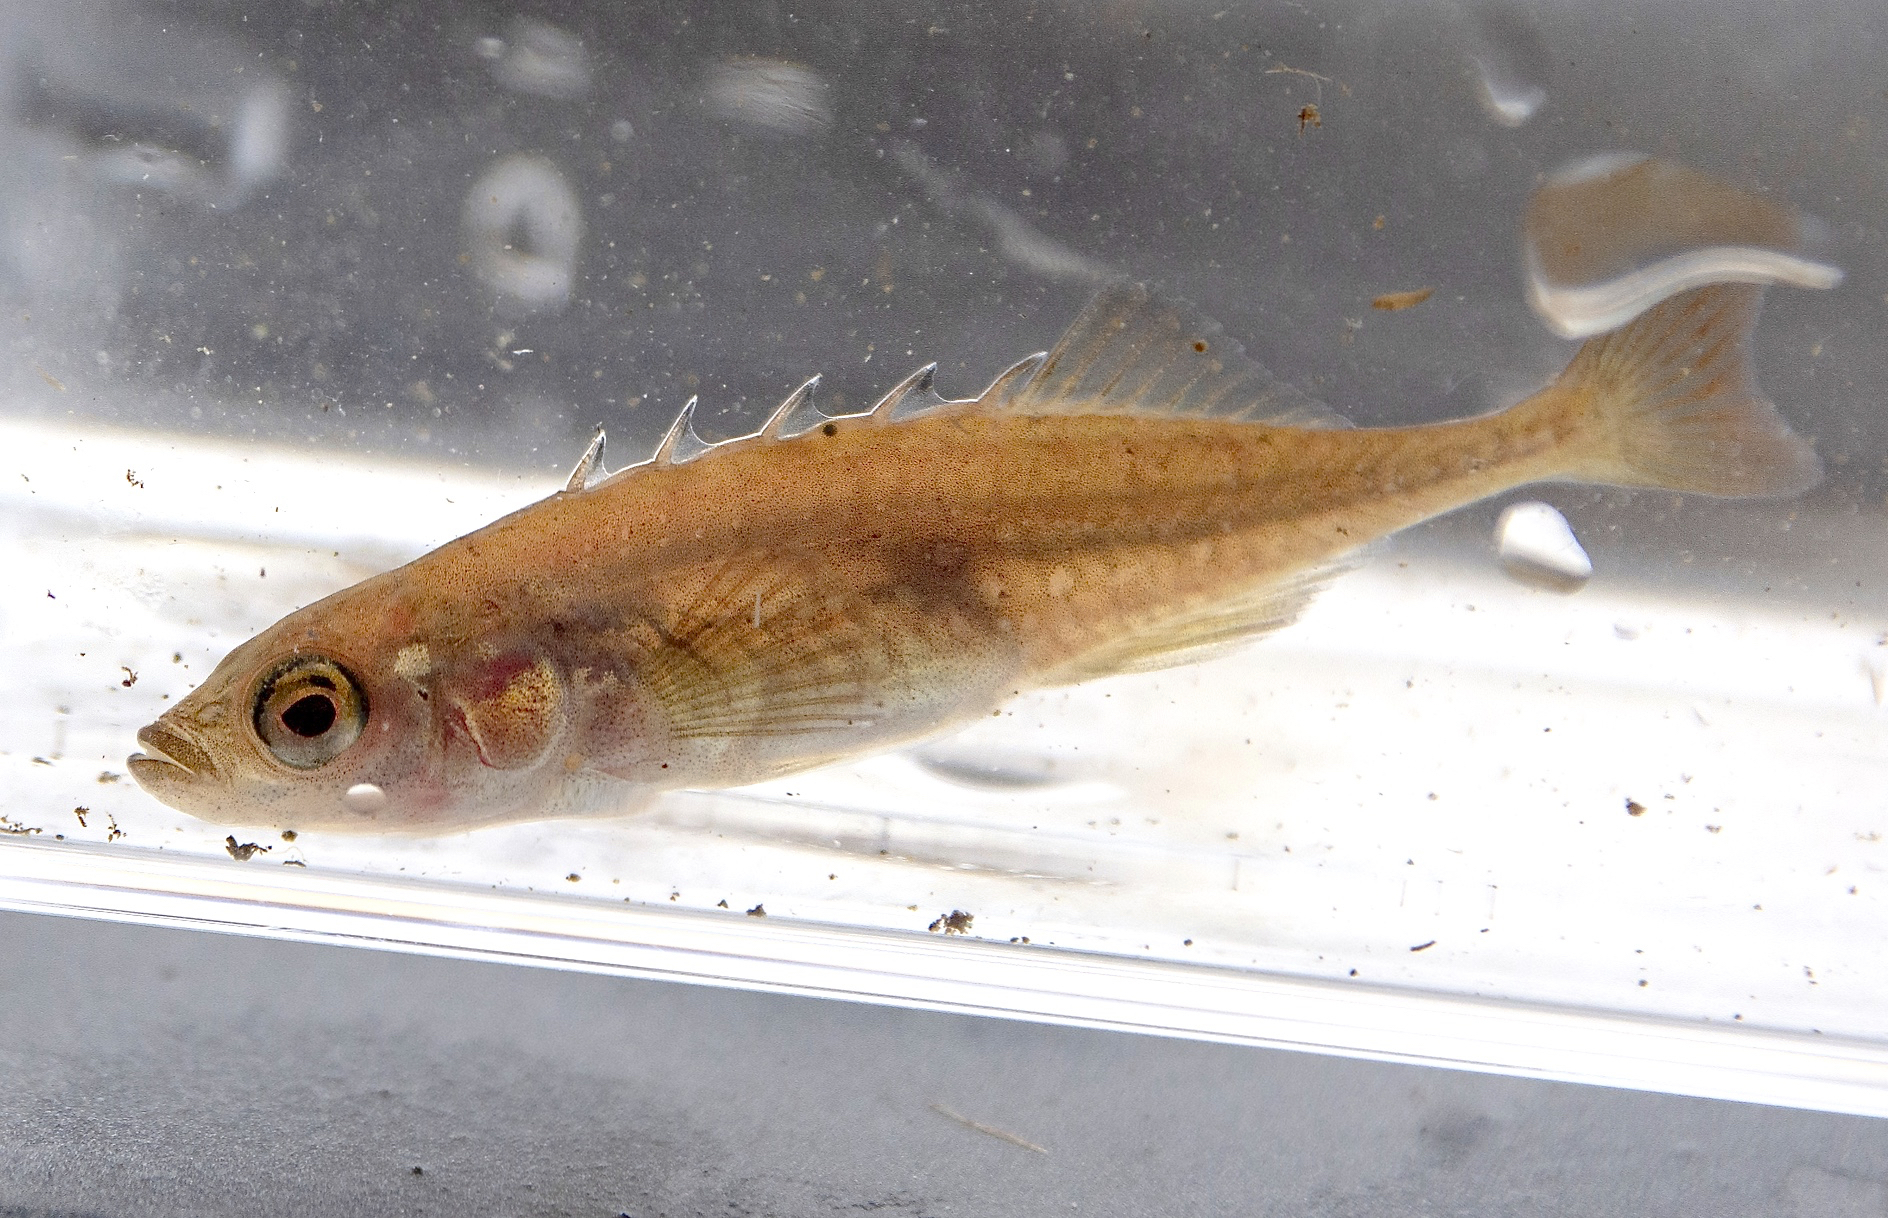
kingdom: Animalia
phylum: Chordata
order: Gasterosteiformes
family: Gasterosteidae
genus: Culaea
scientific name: Culaea inconstans
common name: Brook stickleback
